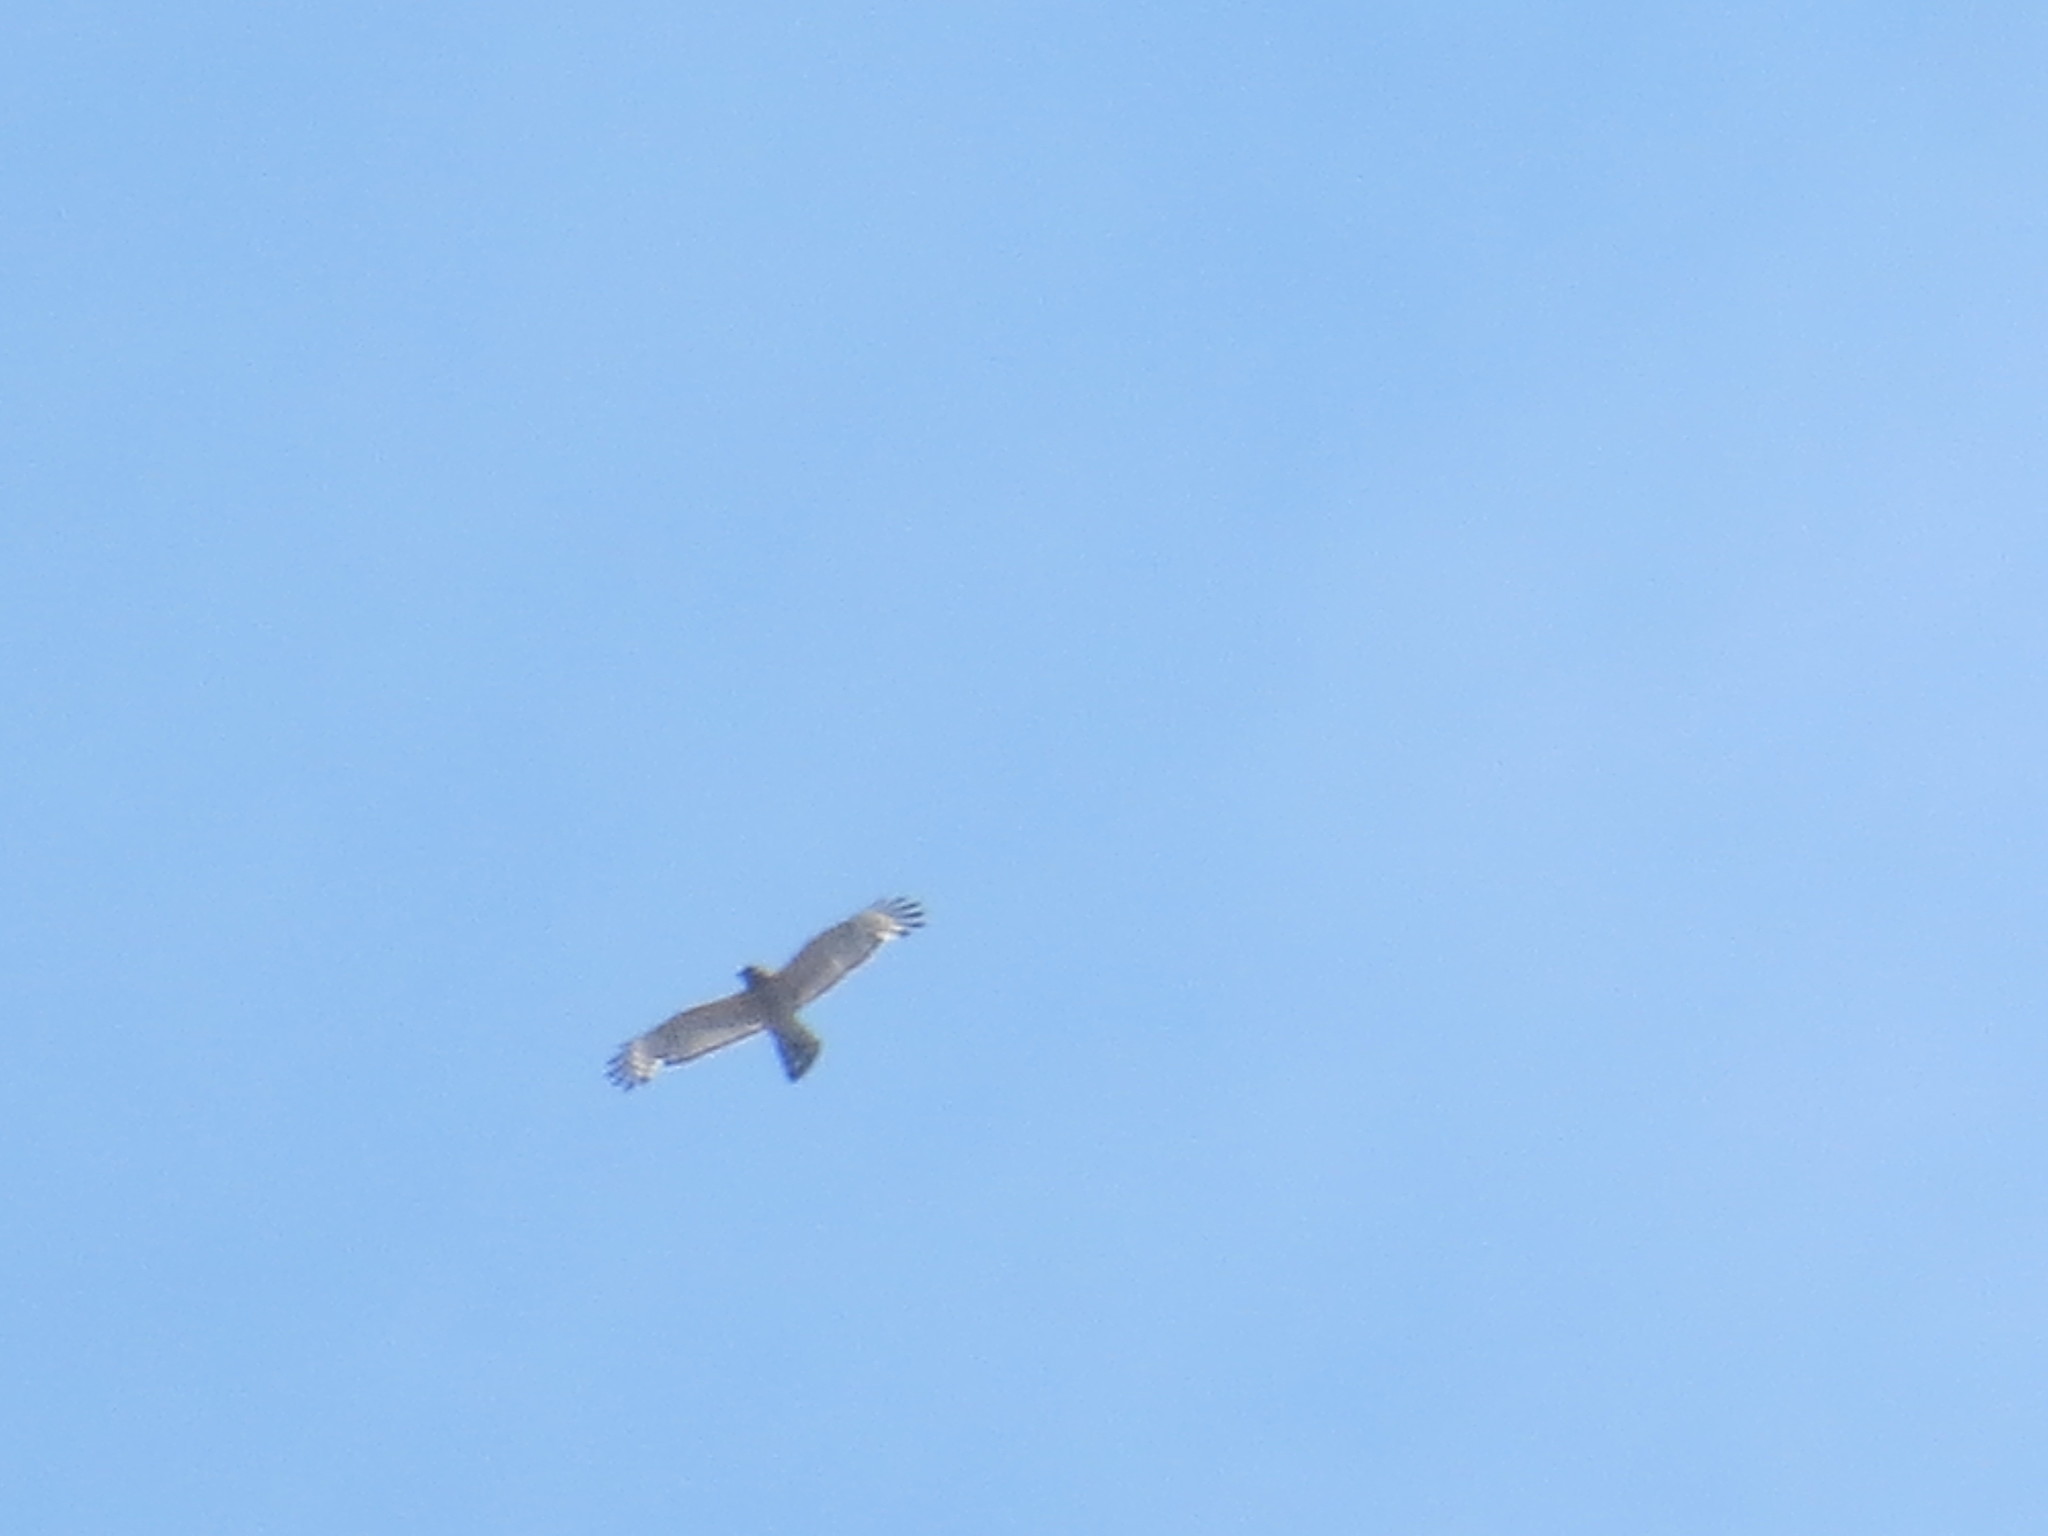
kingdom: Animalia
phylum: Chordata
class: Aves
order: Accipitriformes
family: Accipitridae
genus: Buteo
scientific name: Buteo lineatus
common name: Red-shouldered hawk
